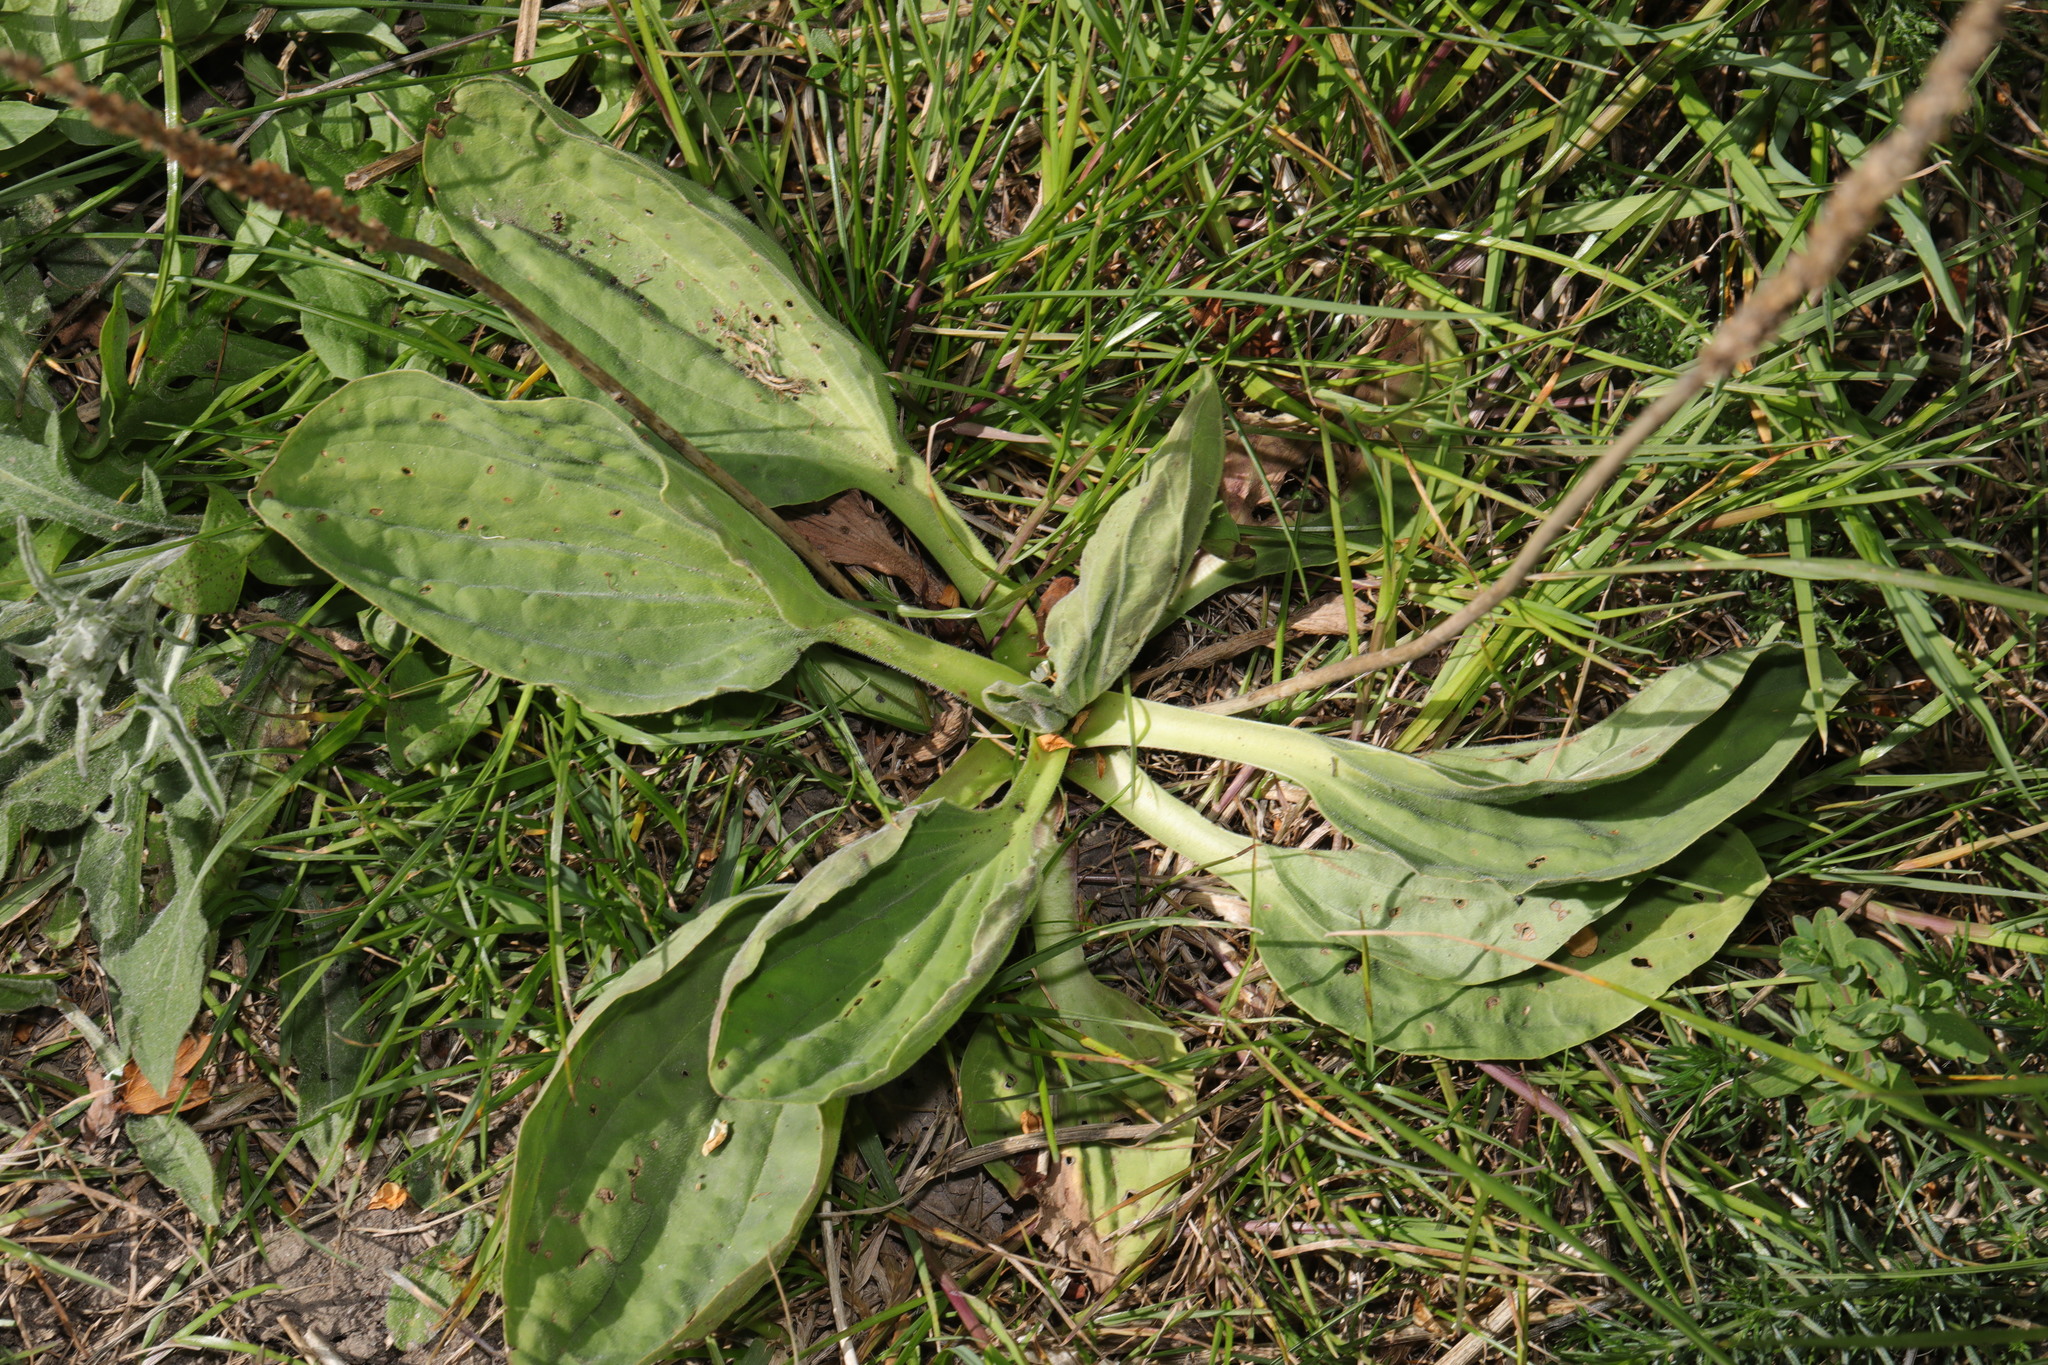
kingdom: Plantae
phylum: Tracheophyta
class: Magnoliopsida
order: Lamiales
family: Plantaginaceae
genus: Plantago
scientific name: Plantago major
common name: Common plantain
